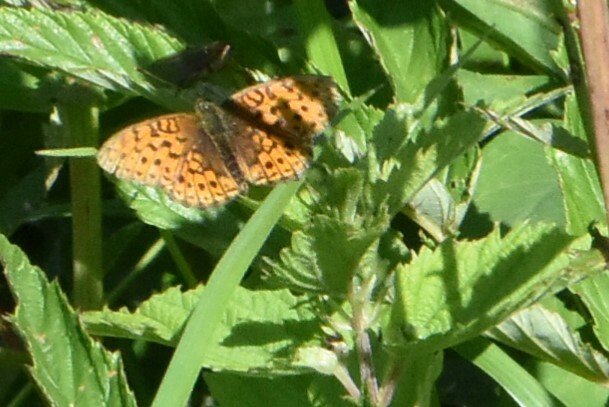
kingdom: Animalia
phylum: Arthropoda
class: Insecta
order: Lepidoptera
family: Nymphalidae
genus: Brenthis
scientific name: Brenthis ino
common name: Lesser marbled fritillary
